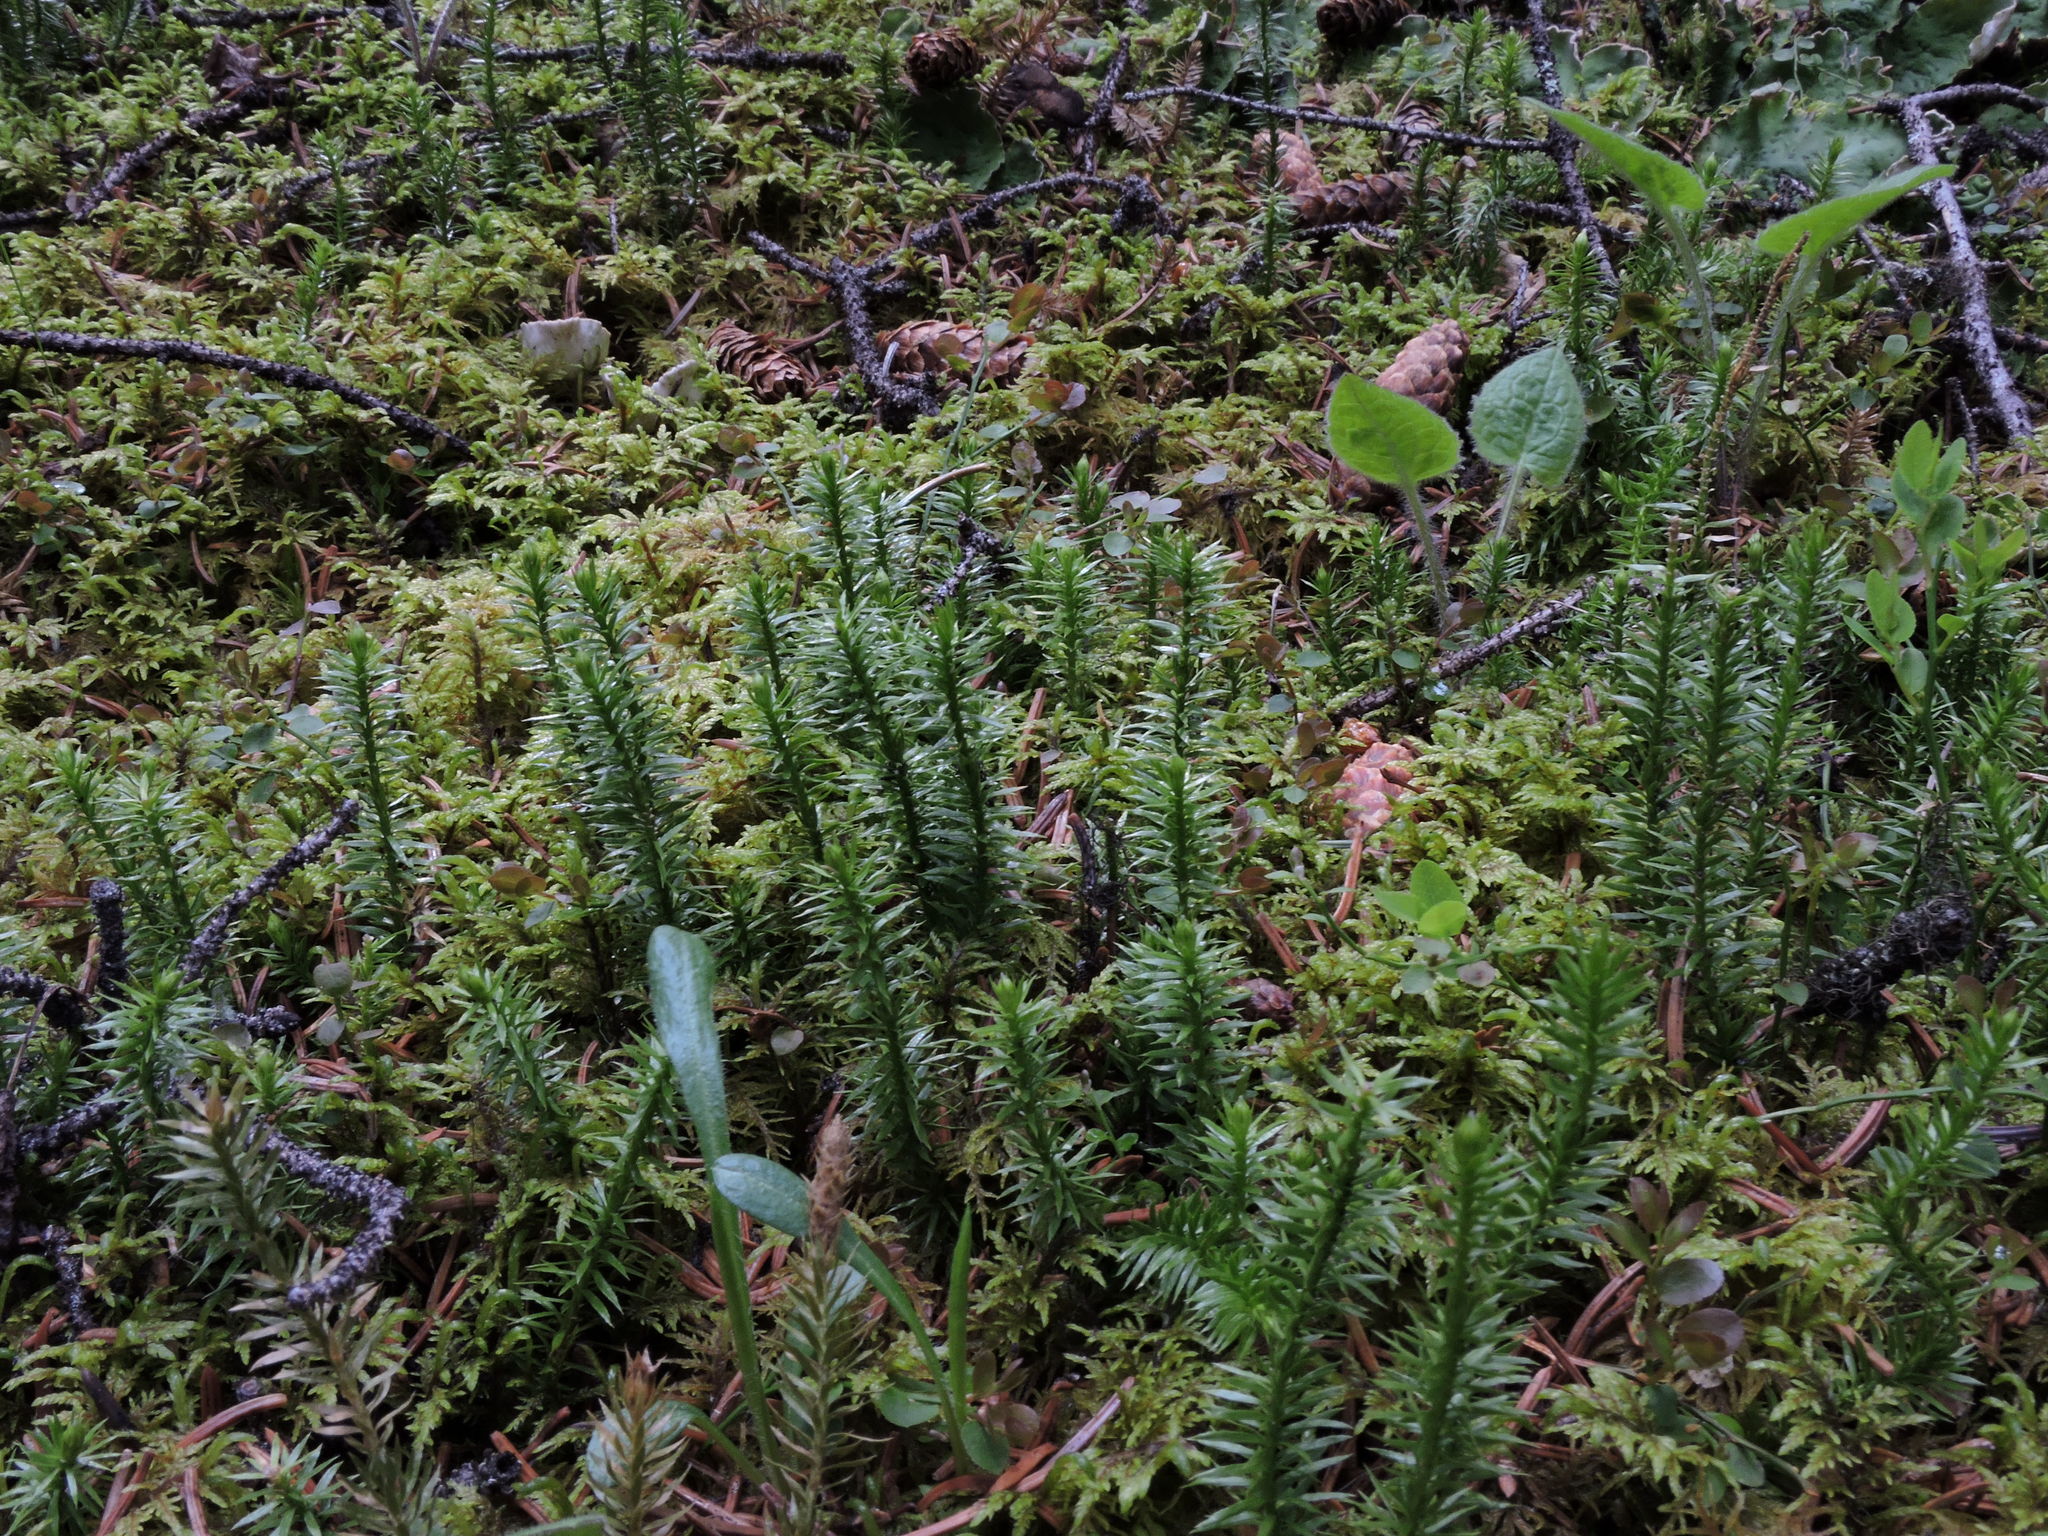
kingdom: Plantae
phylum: Tracheophyta
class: Lycopodiopsida
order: Lycopodiales
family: Lycopodiaceae
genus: Spinulum
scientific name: Spinulum annotinum
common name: Interrupted club-moss
